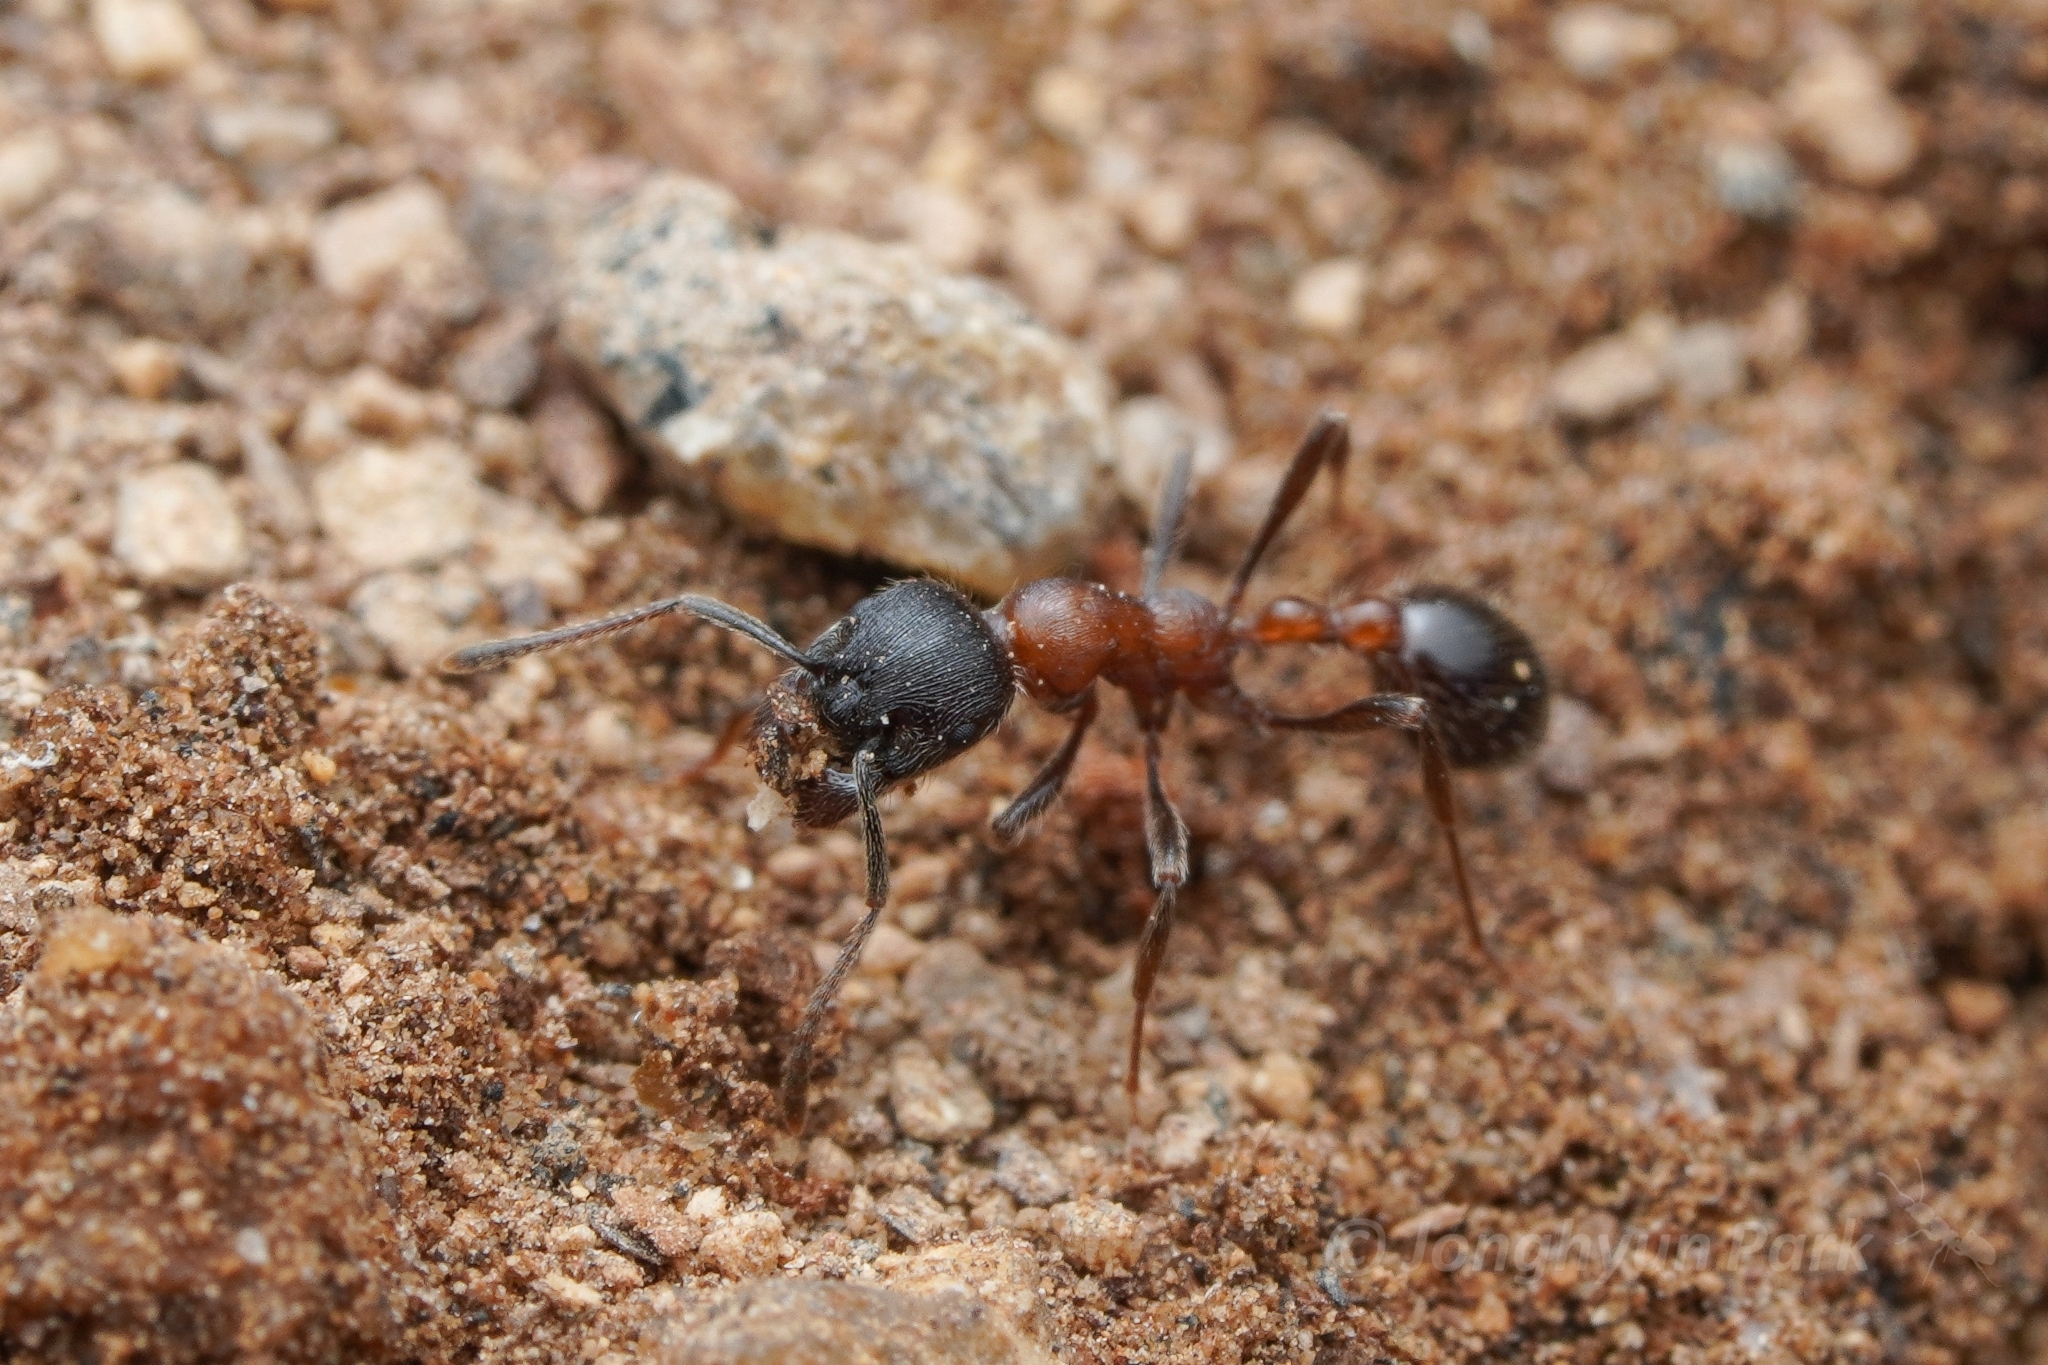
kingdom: Animalia
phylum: Arthropoda
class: Insecta
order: Hymenoptera
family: Formicidae
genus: Manica
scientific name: Manica bradleyi
